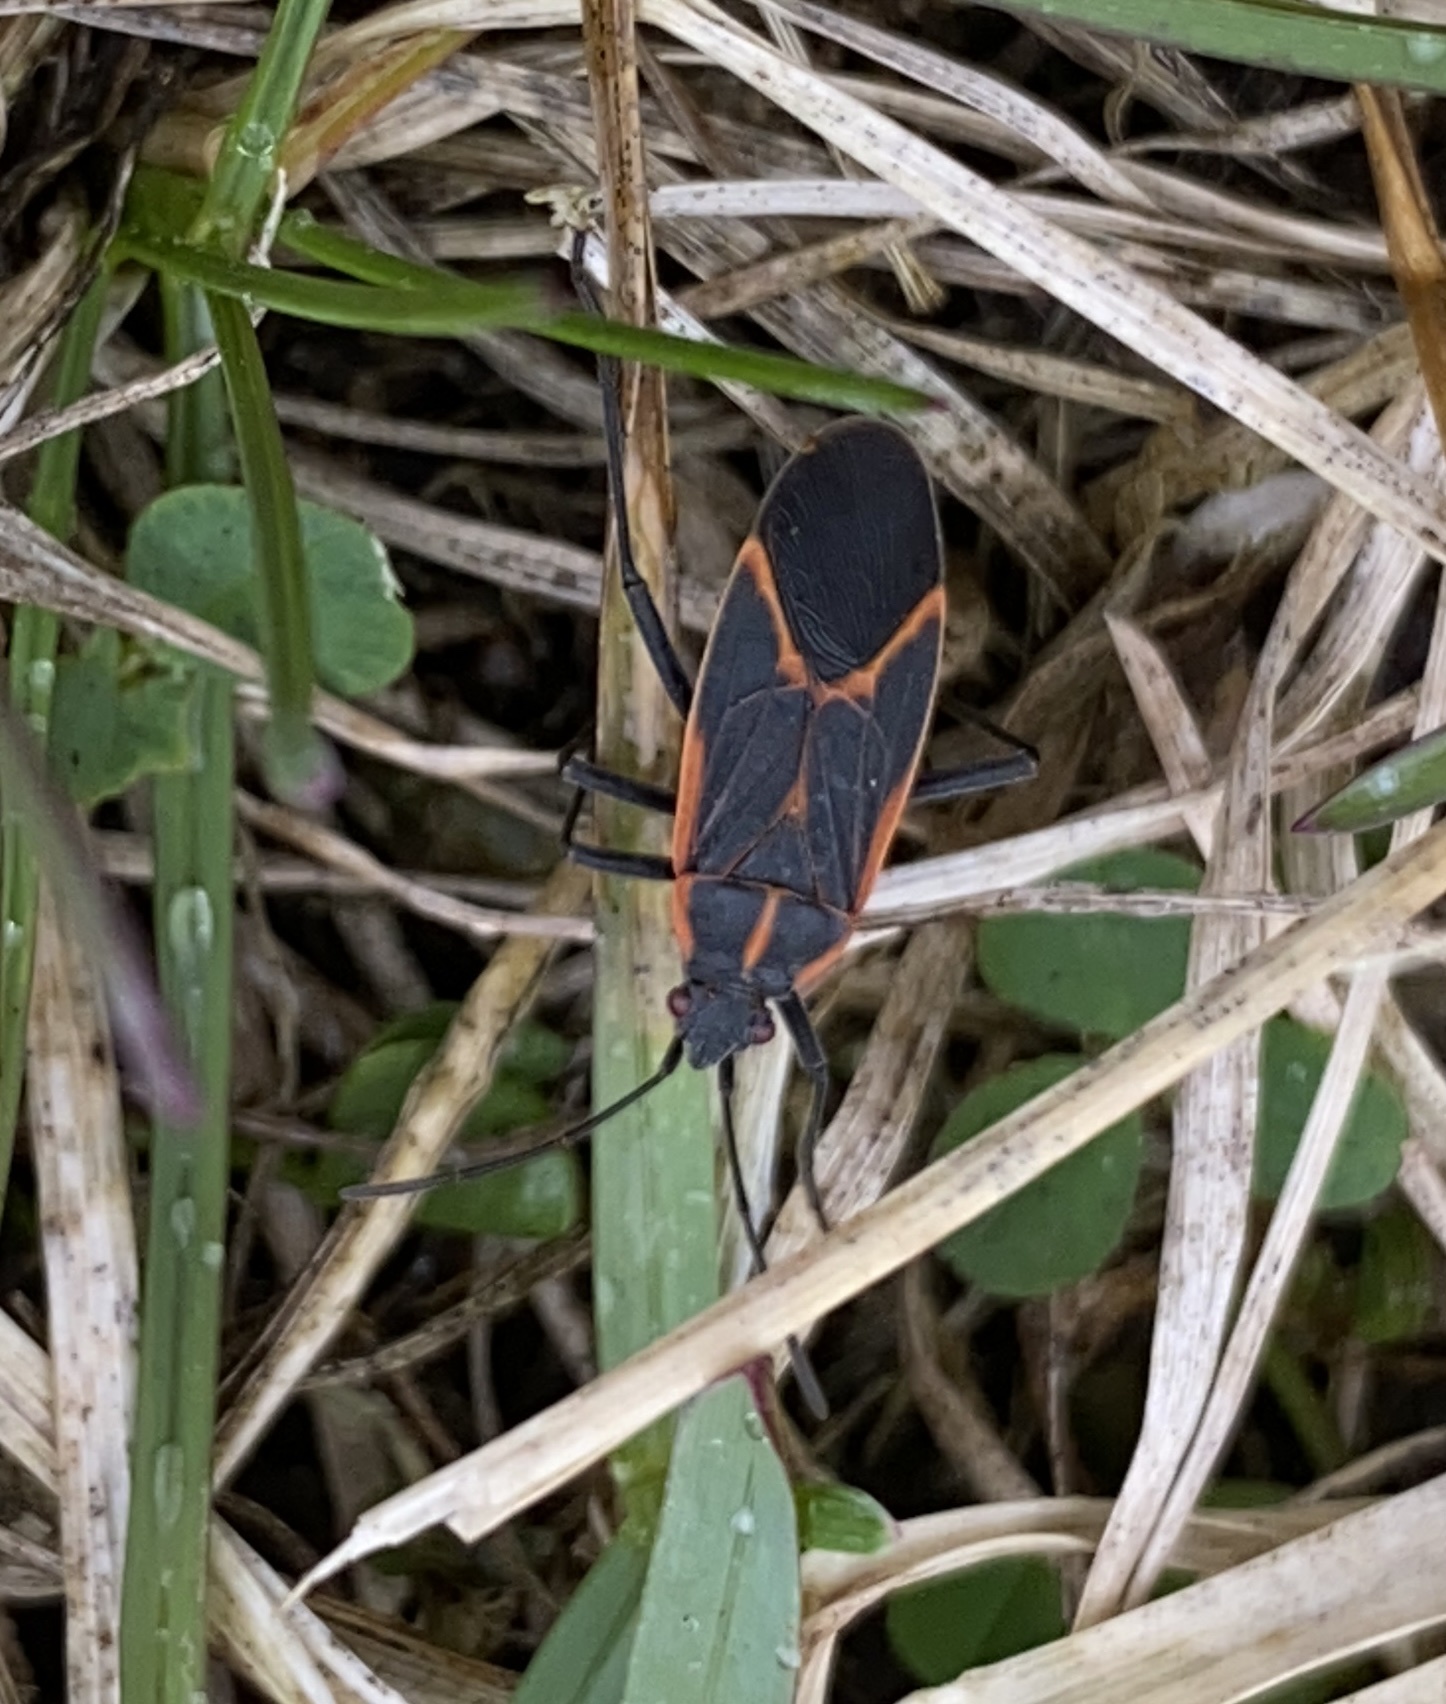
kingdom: Animalia
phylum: Arthropoda
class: Insecta
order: Hemiptera
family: Rhopalidae
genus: Boisea
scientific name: Boisea trivittata
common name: Boxelder bug
